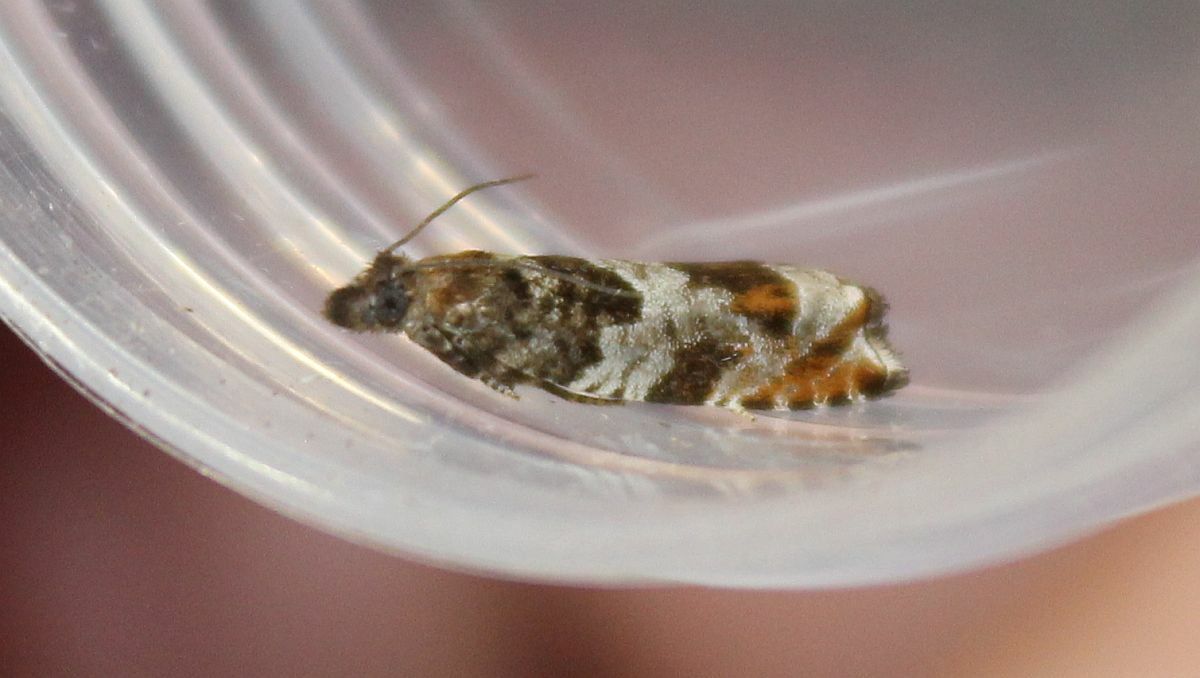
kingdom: Animalia
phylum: Arthropoda
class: Insecta
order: Lepidoptera
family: Tortricidae
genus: Ancylis
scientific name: Ancylis achatana
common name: Triangle-marked roller
